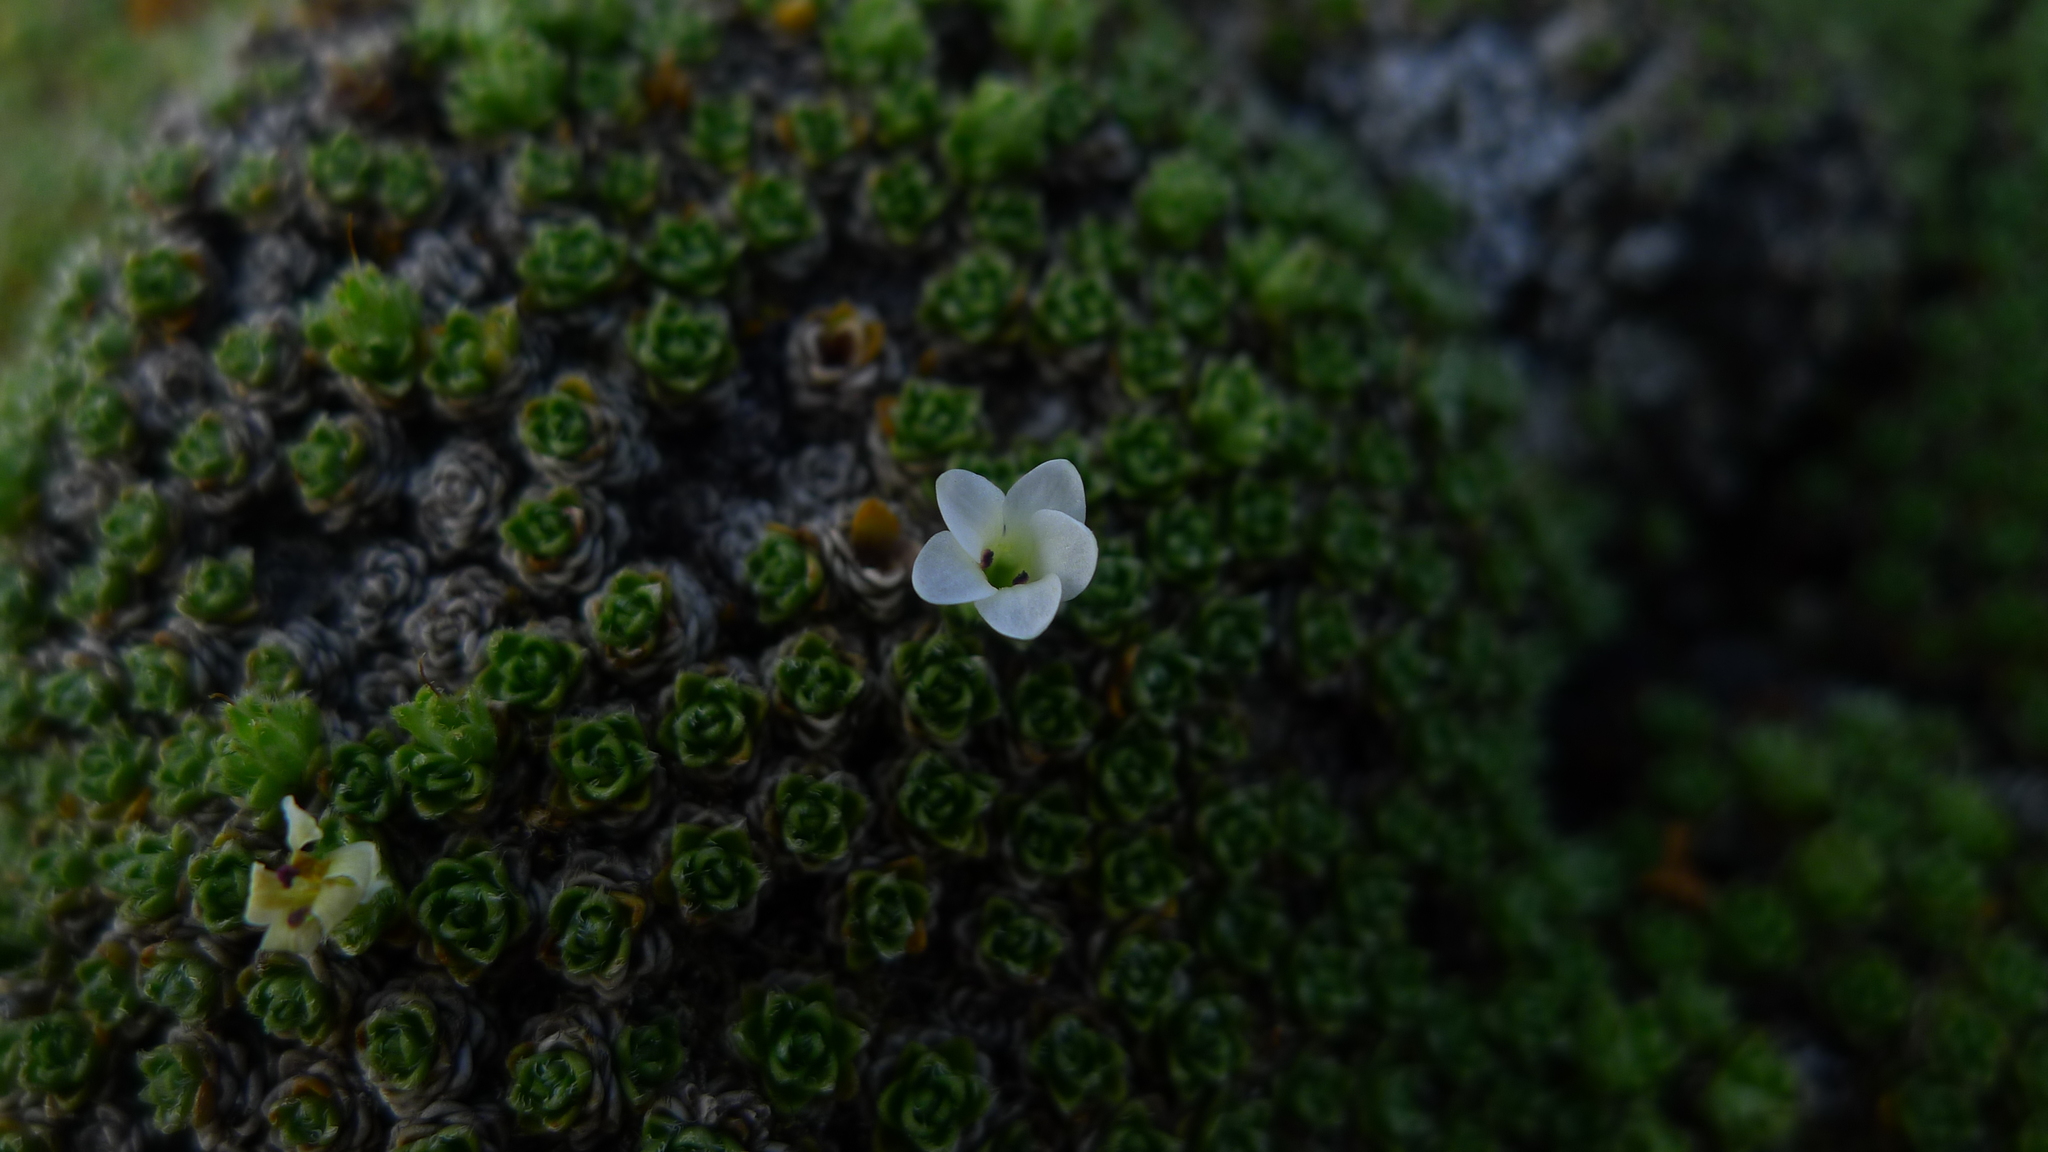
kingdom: Plantae
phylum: Tracheophyta
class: Magnoliopsida
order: Lamiales
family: Plantaginaceae
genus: Veronica
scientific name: Veronica ciliolata
